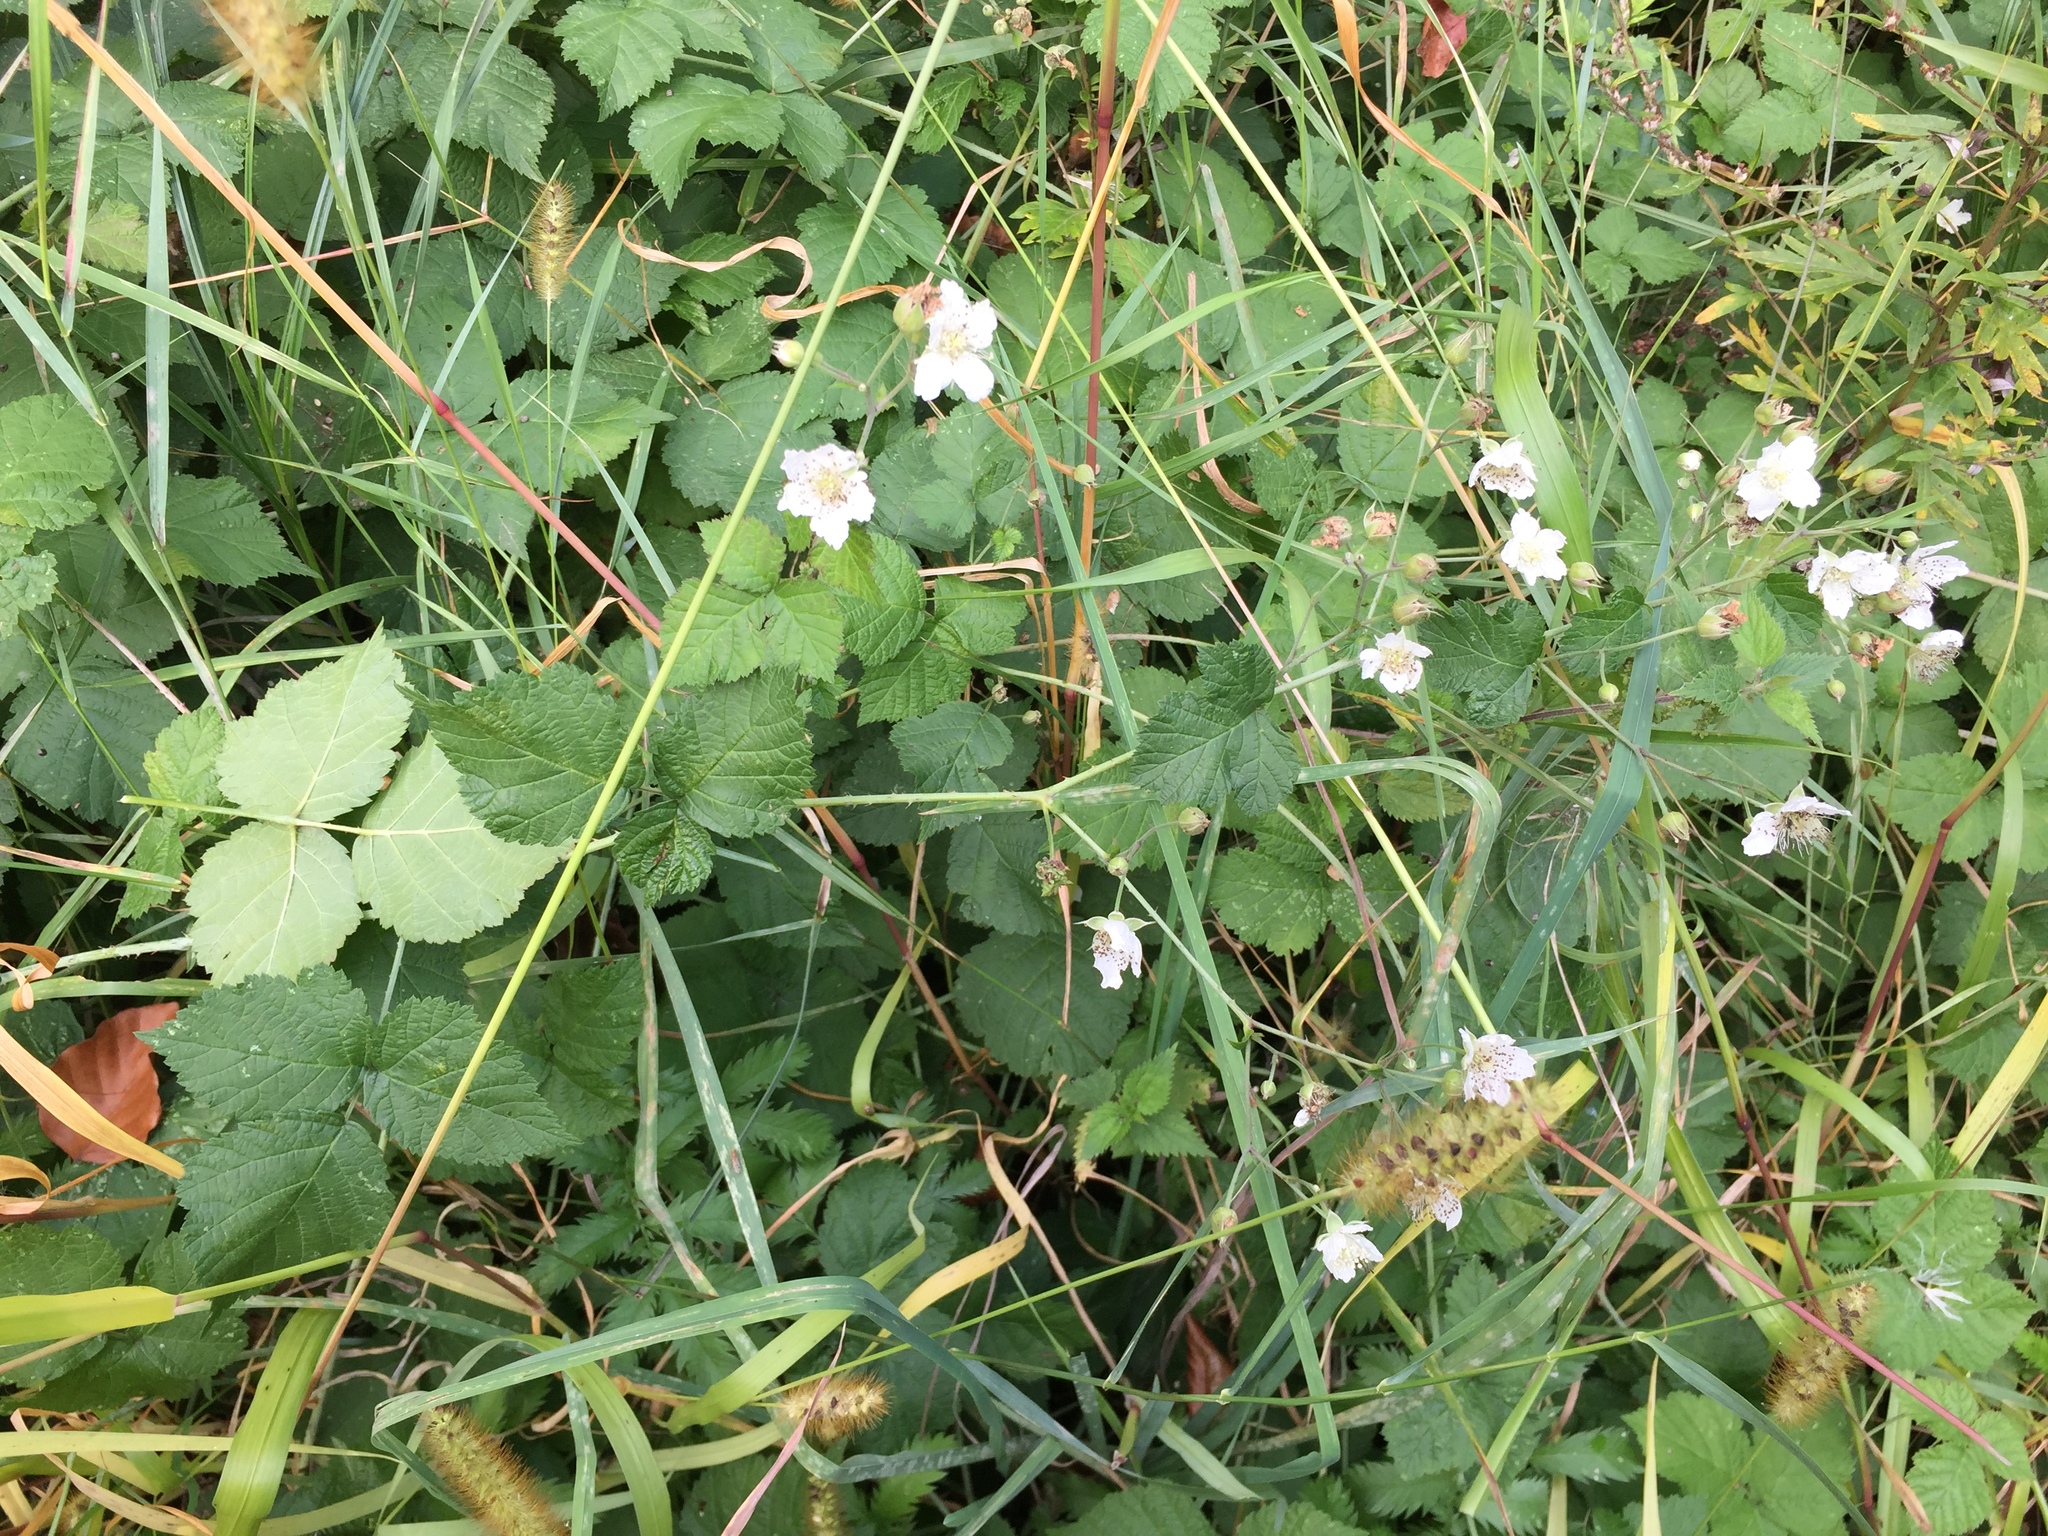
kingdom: Plantae
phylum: Tracheophyta
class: Magnoliopsida
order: Rosales
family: Rosaceae
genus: Rubus
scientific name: Rubus caesius
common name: Dewberry
